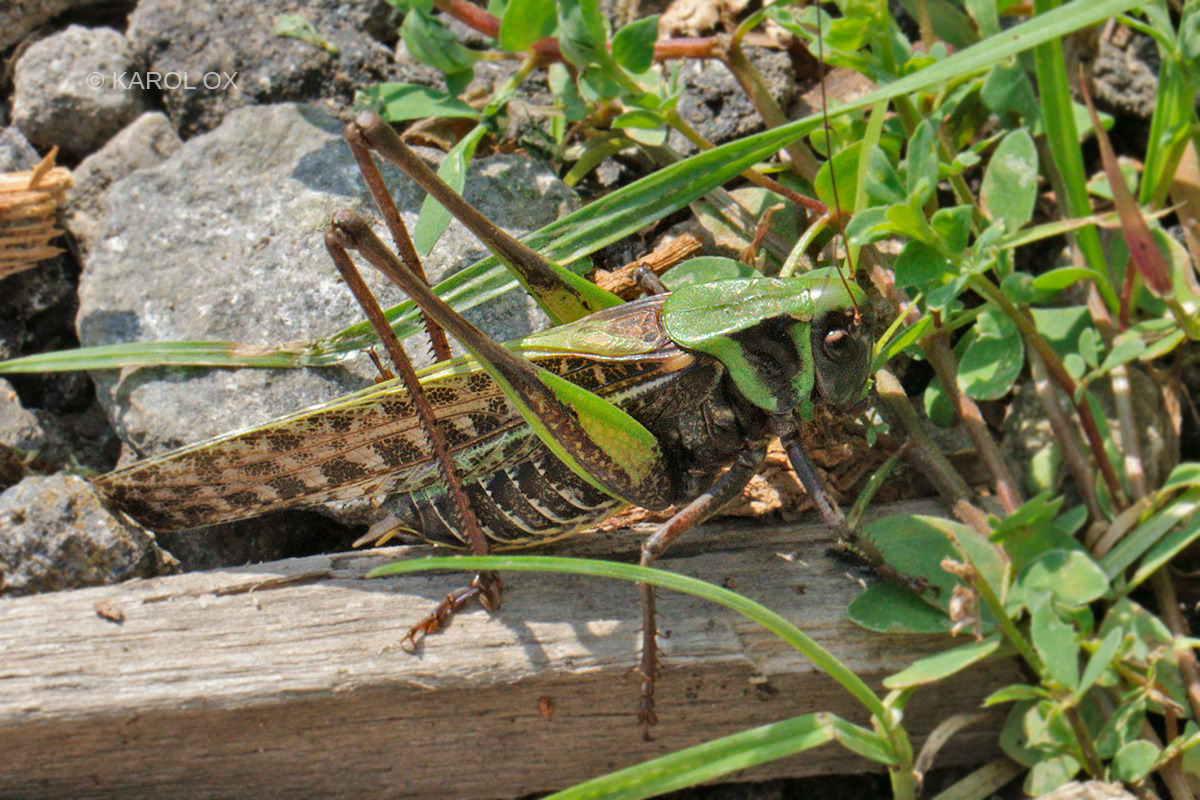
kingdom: Animalia
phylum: Arthropoda
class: Insecta
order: Orthoptera
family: Tettigoniidae
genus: Decticus
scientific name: Decticus verrucivorus
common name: Wart-biter
